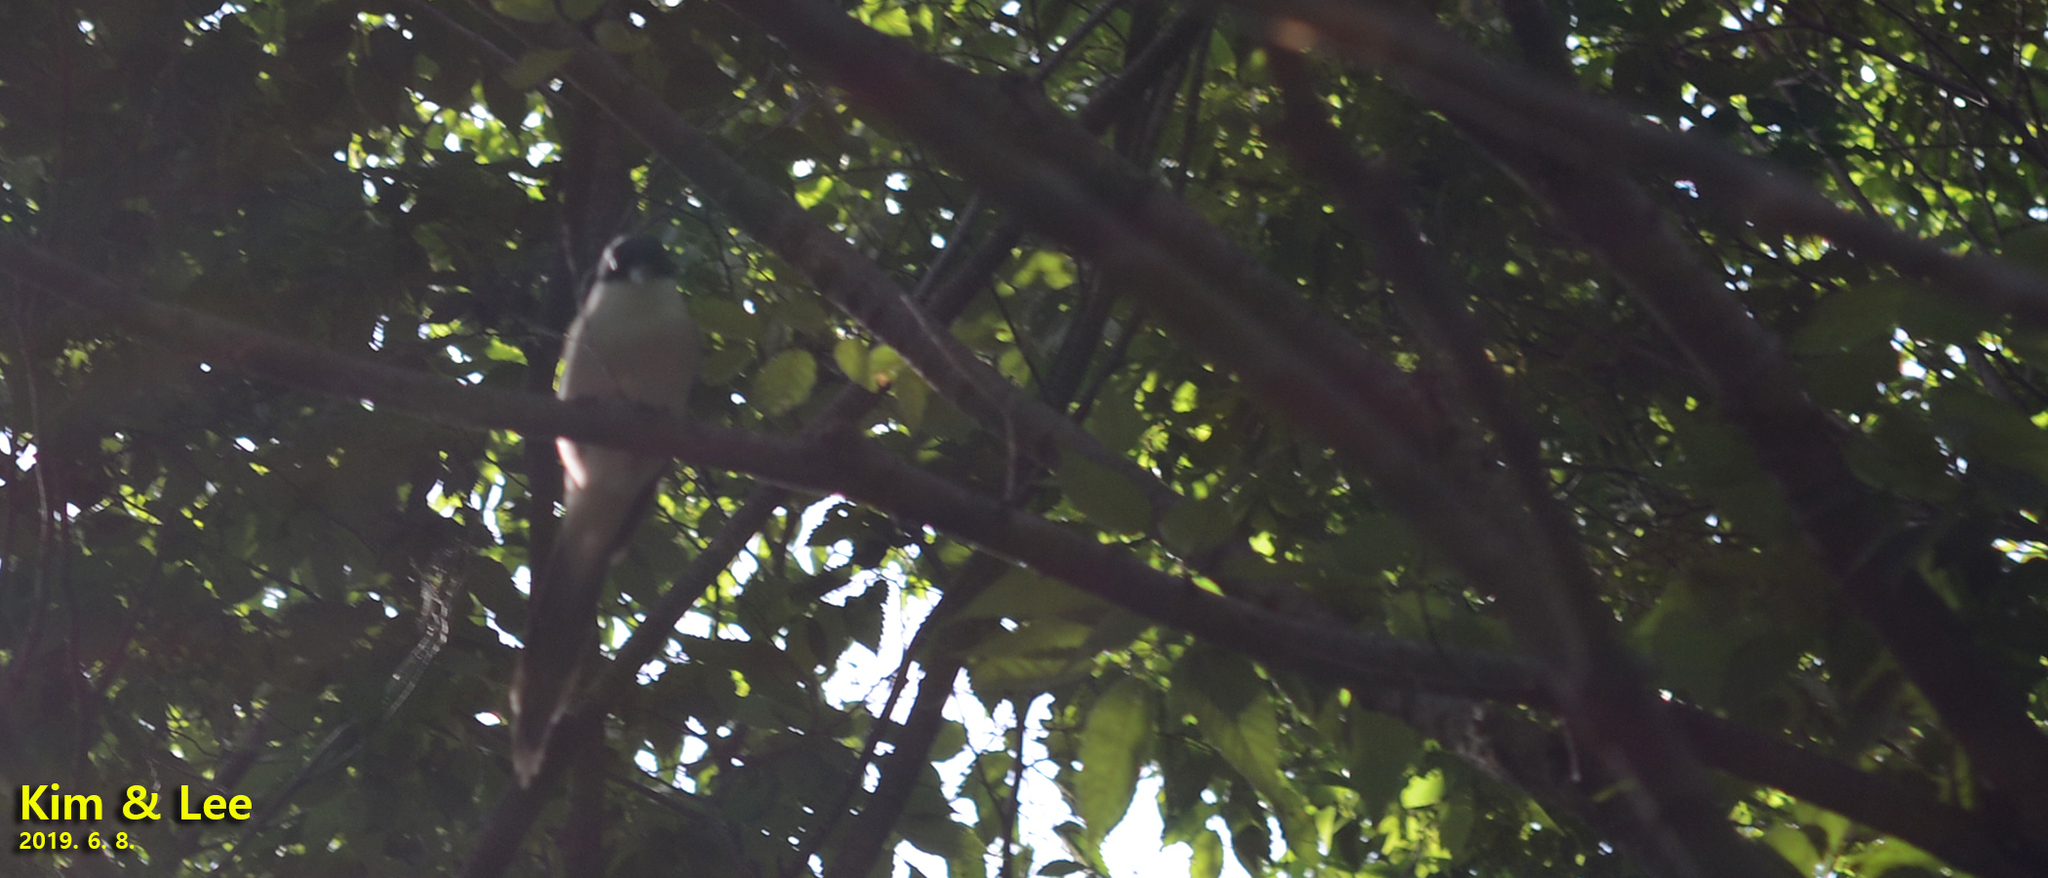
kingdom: Animalia
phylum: Chordata
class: Aves
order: Passeriformes
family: Corvidae
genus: Cyanopica
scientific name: Cyanopica cyanus
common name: Azure-winged magpie
